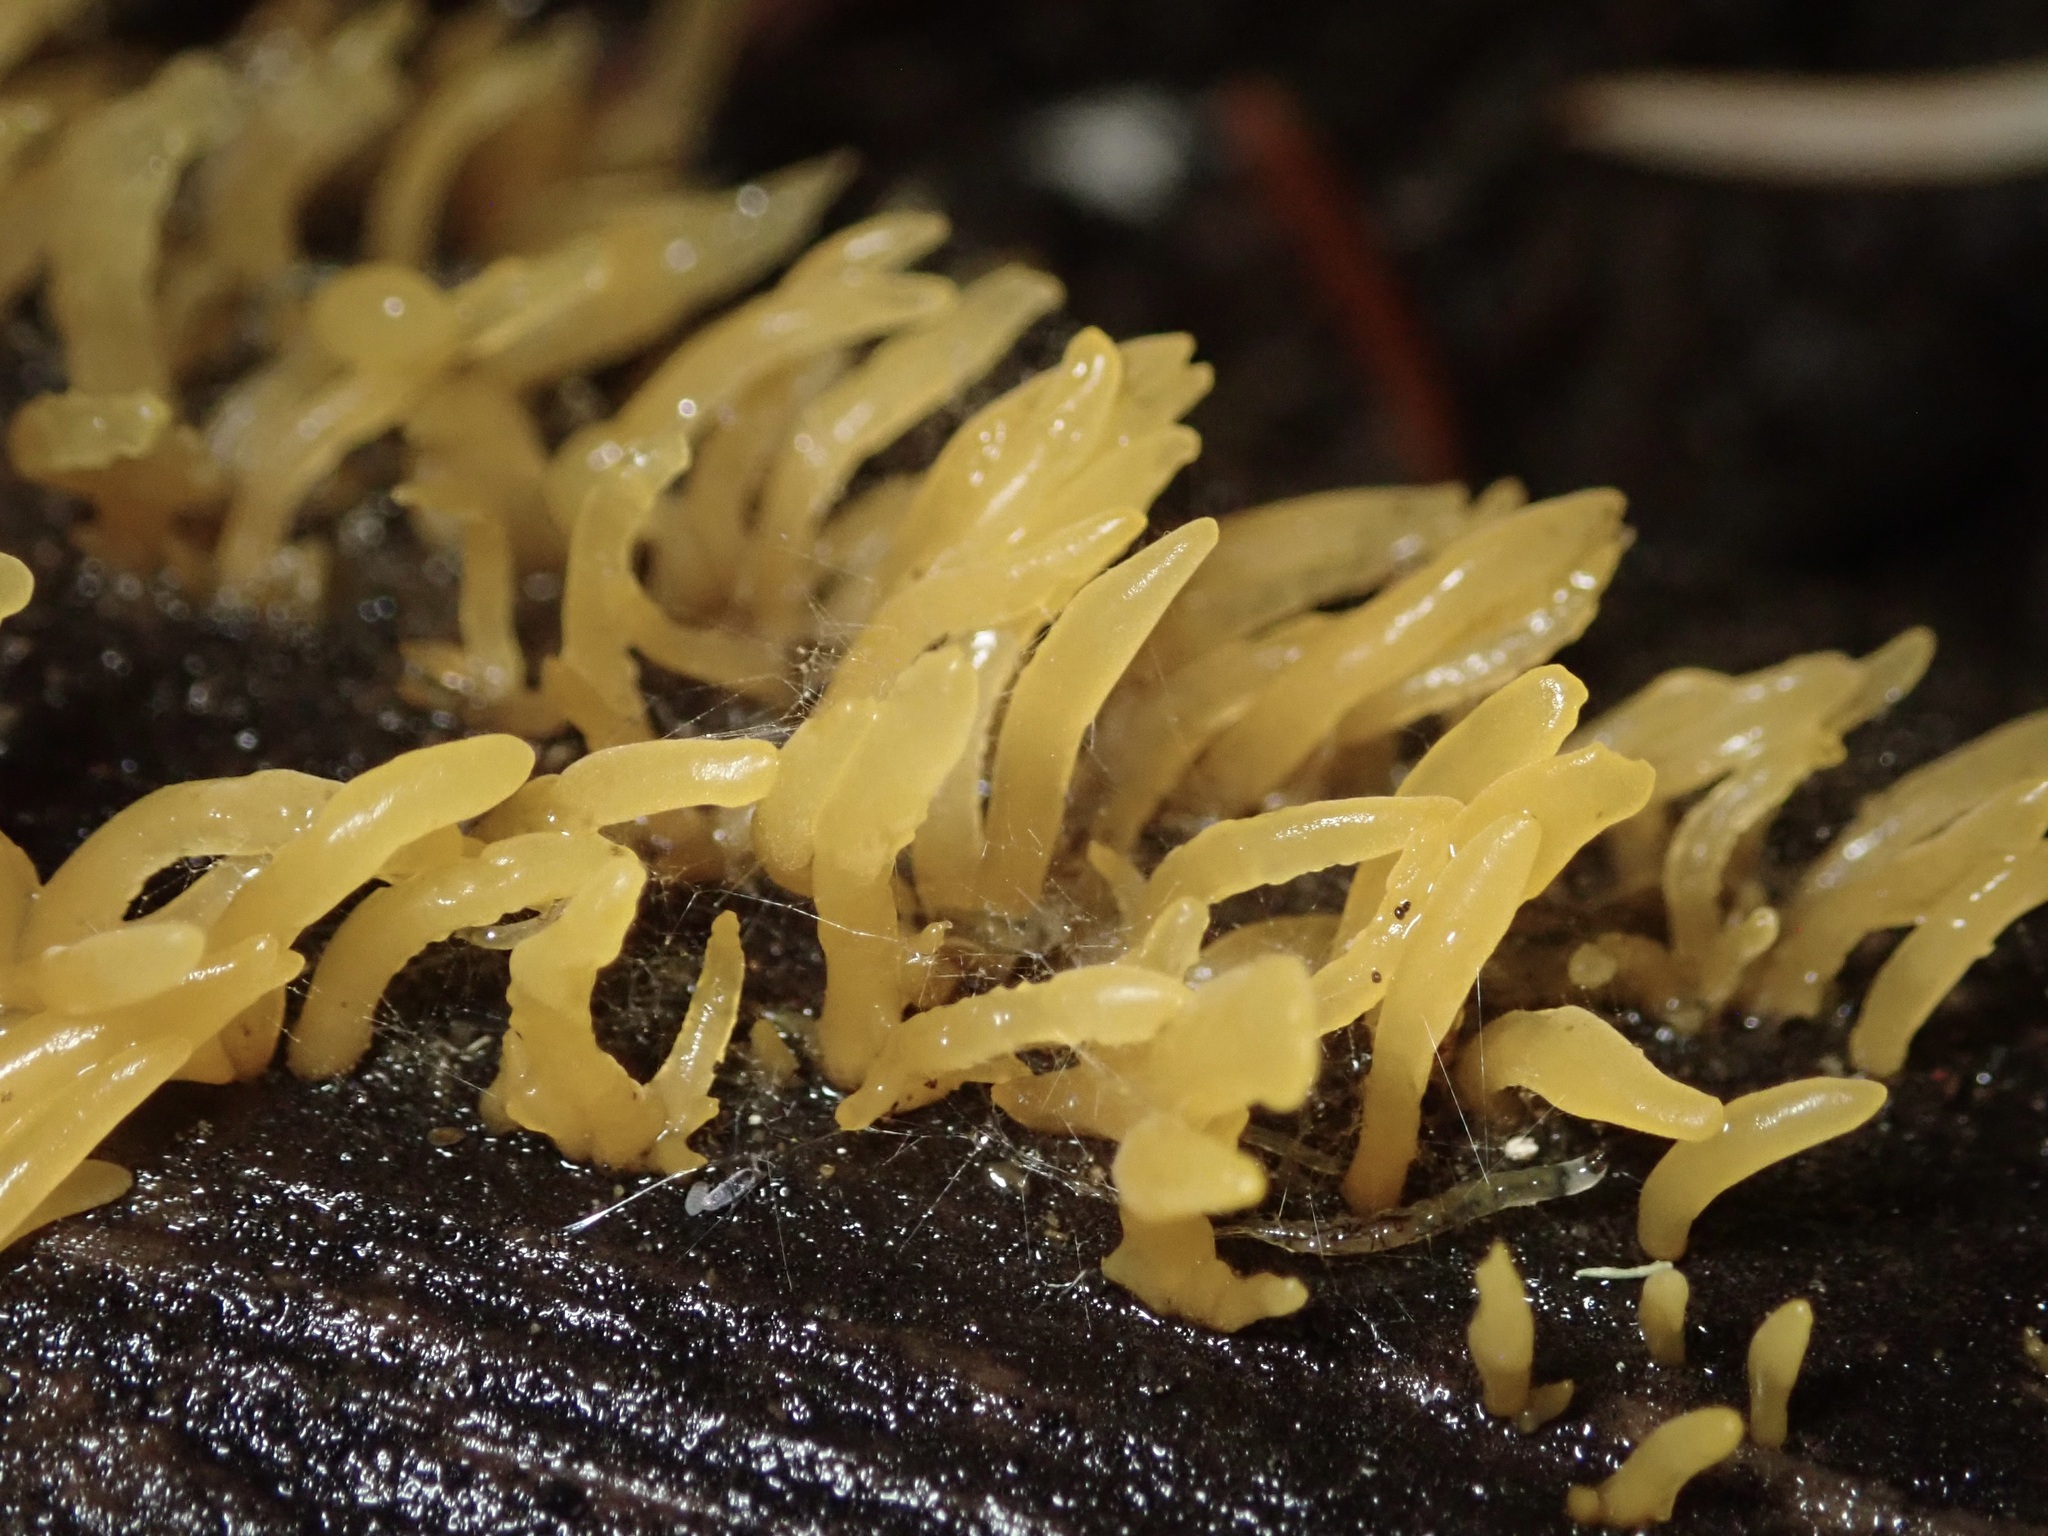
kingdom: Fungi
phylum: Basidiomycota
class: Dacrymycetes
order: Dacrymycetales
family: Dacrymycetaceae
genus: Calocera
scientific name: Calocera cornea
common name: Small stagshorn
